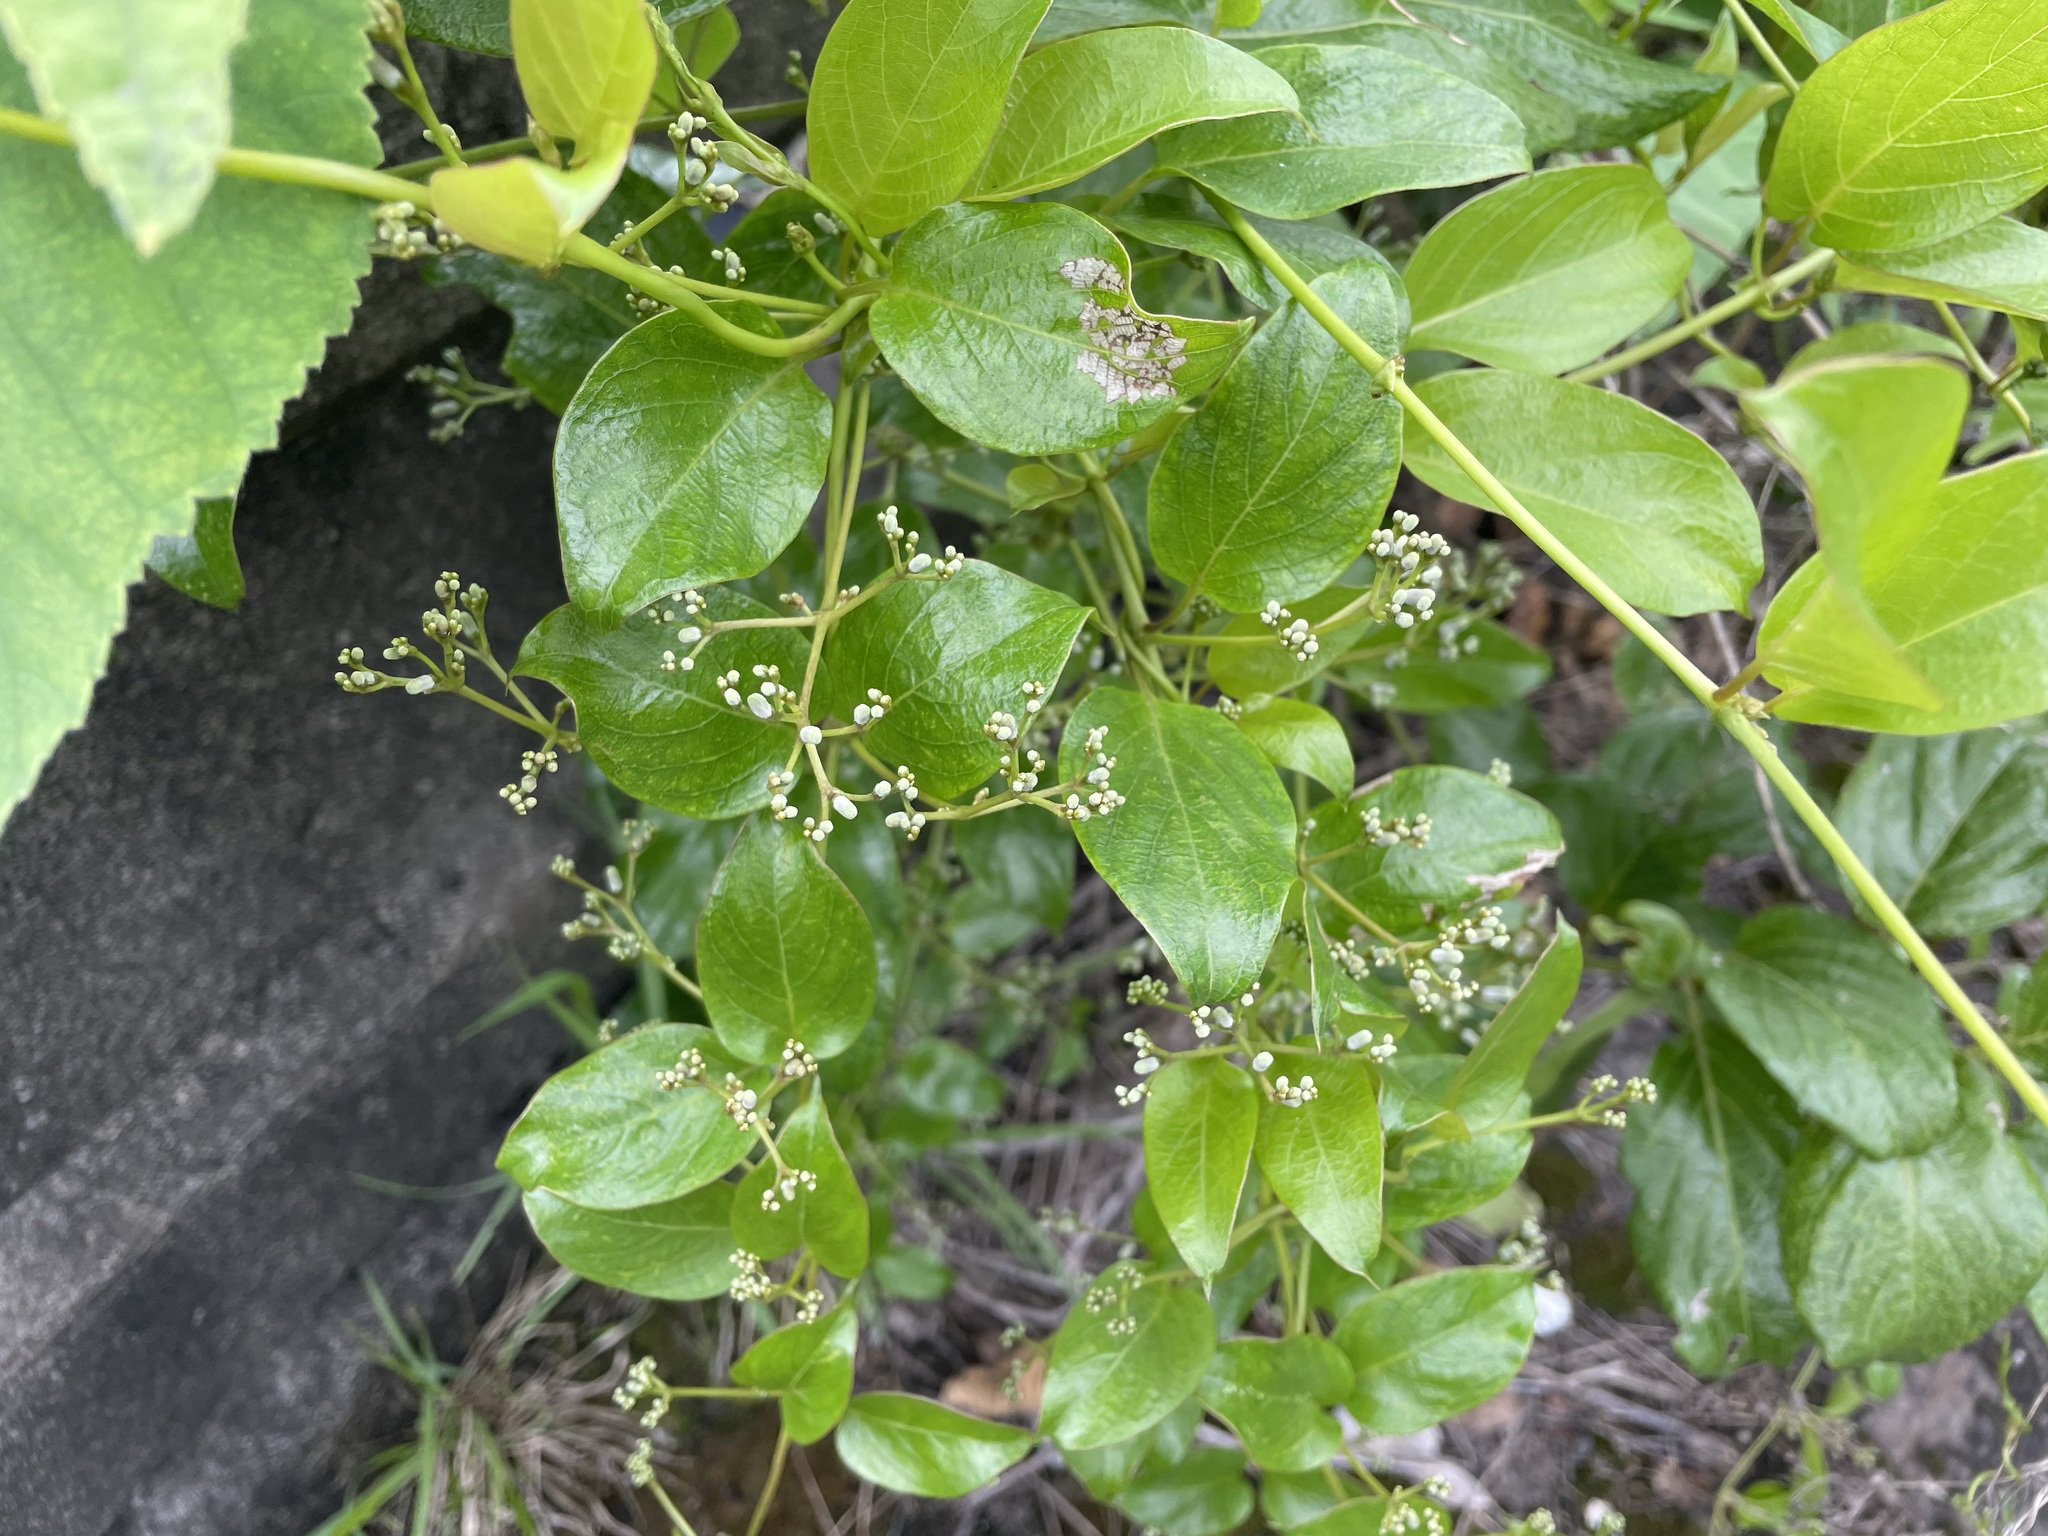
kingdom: Plantae
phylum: Tracheophyta
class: Magnoliopsida
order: Gentianales
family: Rubiaceae
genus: Paederia
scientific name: Paederia foetida
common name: Stinkvine
